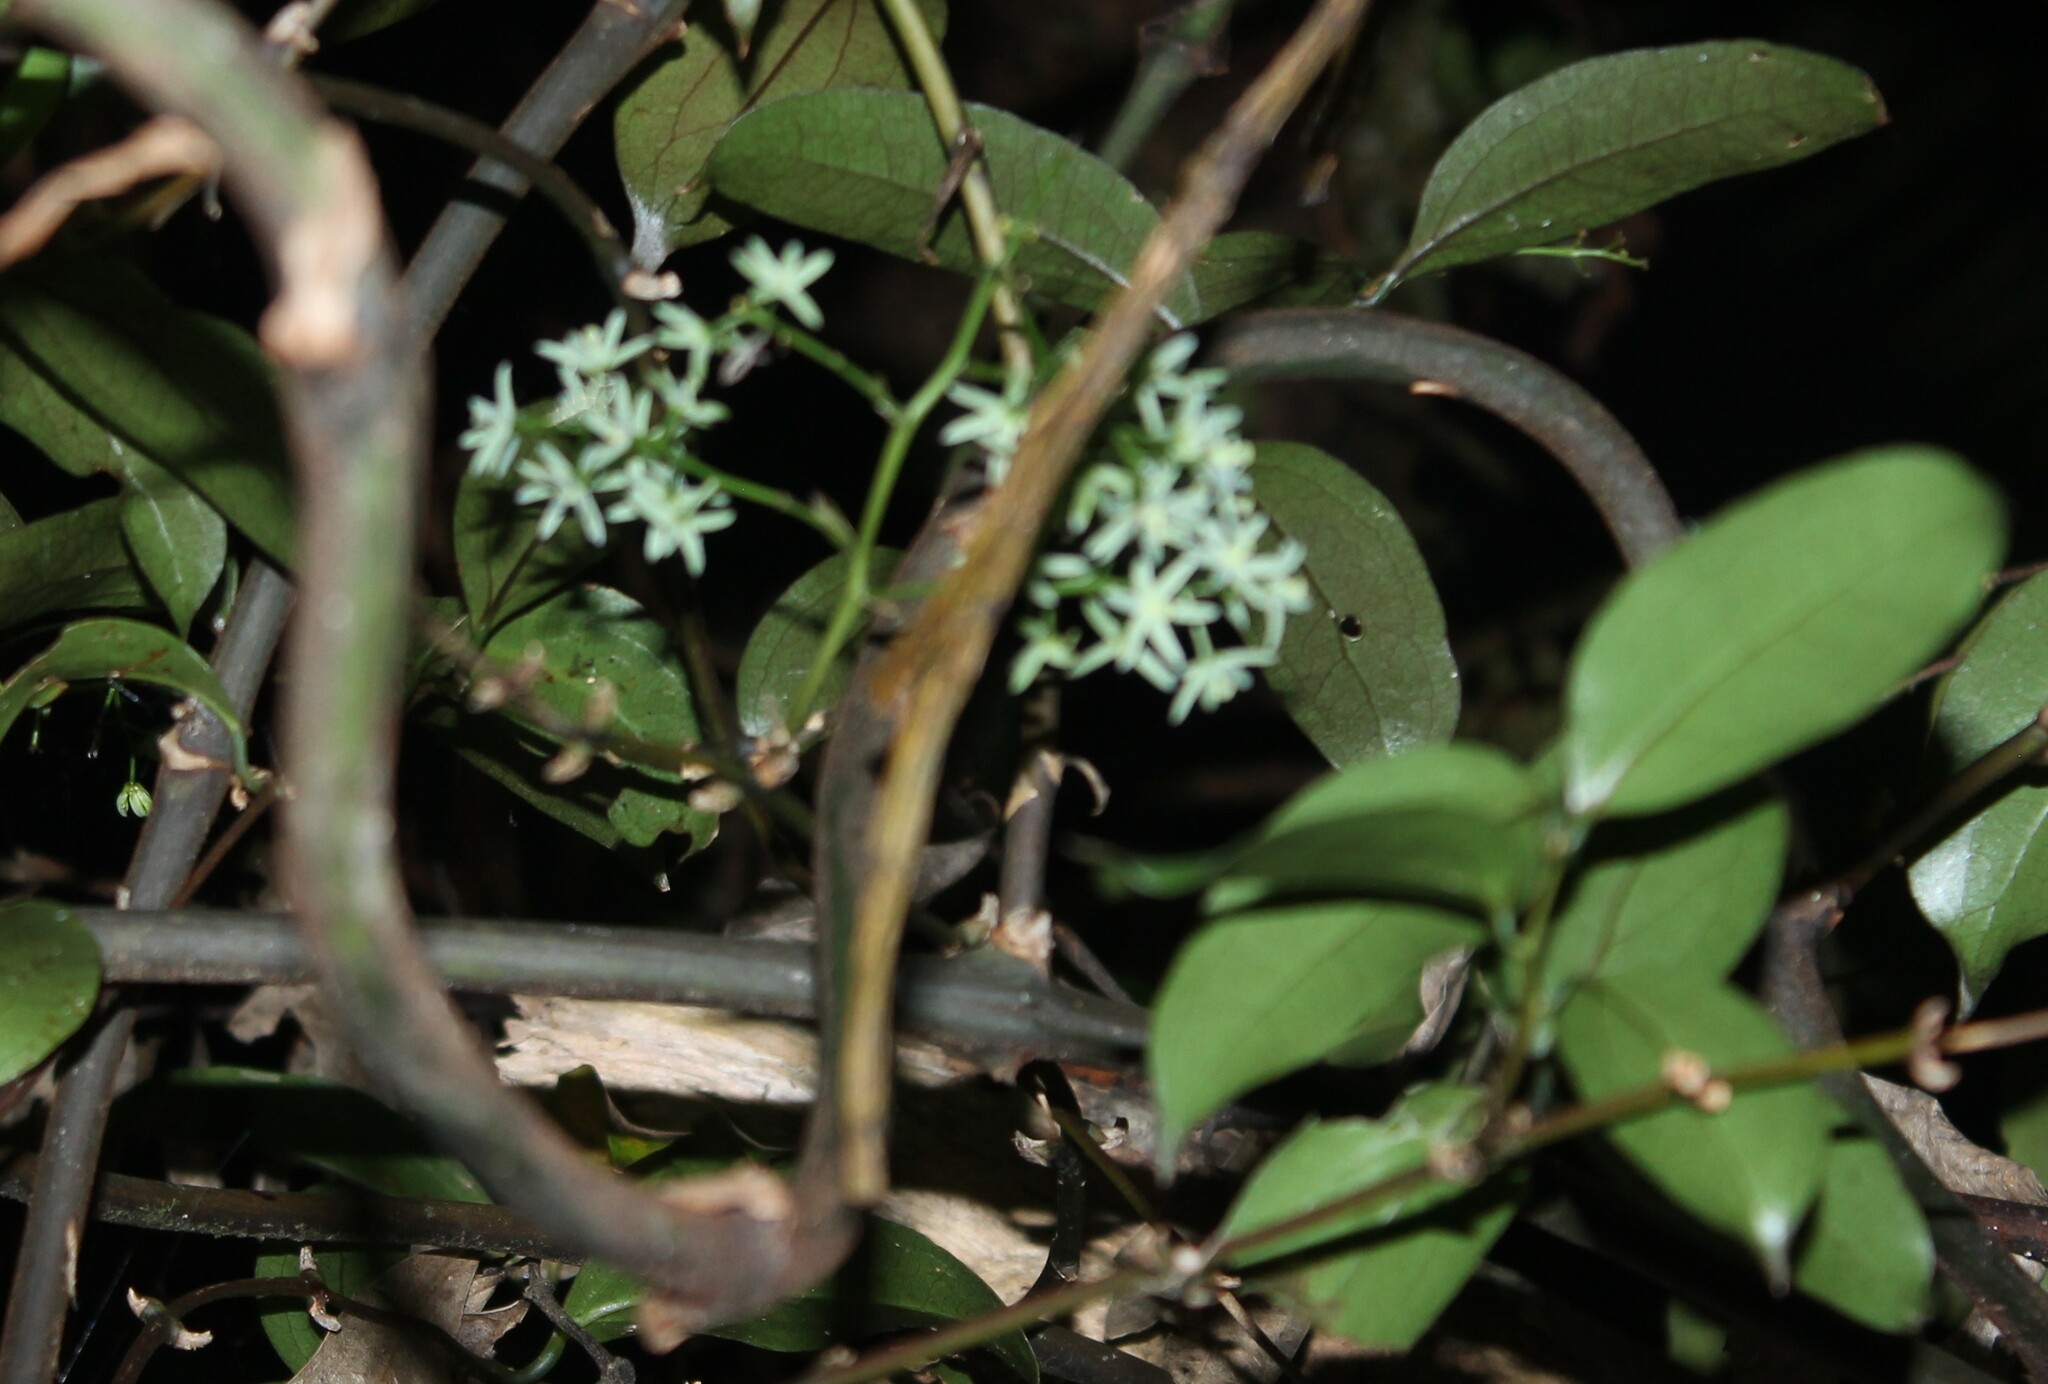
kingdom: Plantae
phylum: Tracheophyta
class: Liliopsida
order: Liliales
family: Ripogonaceae
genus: Ripogonum
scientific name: Ripogonum scandens
